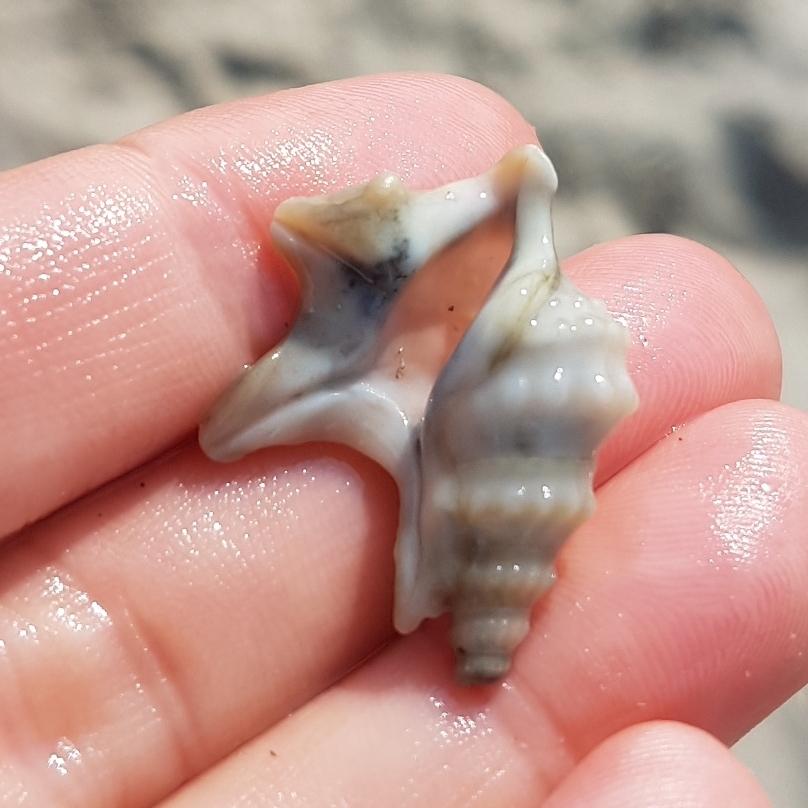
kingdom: Animalia
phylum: Mollusca
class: Gastropoda
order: Littorinimorpha
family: Aporrhaidae
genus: Aporrhais
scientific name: Aporrhais pespelecani
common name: Common pelican’s foot
